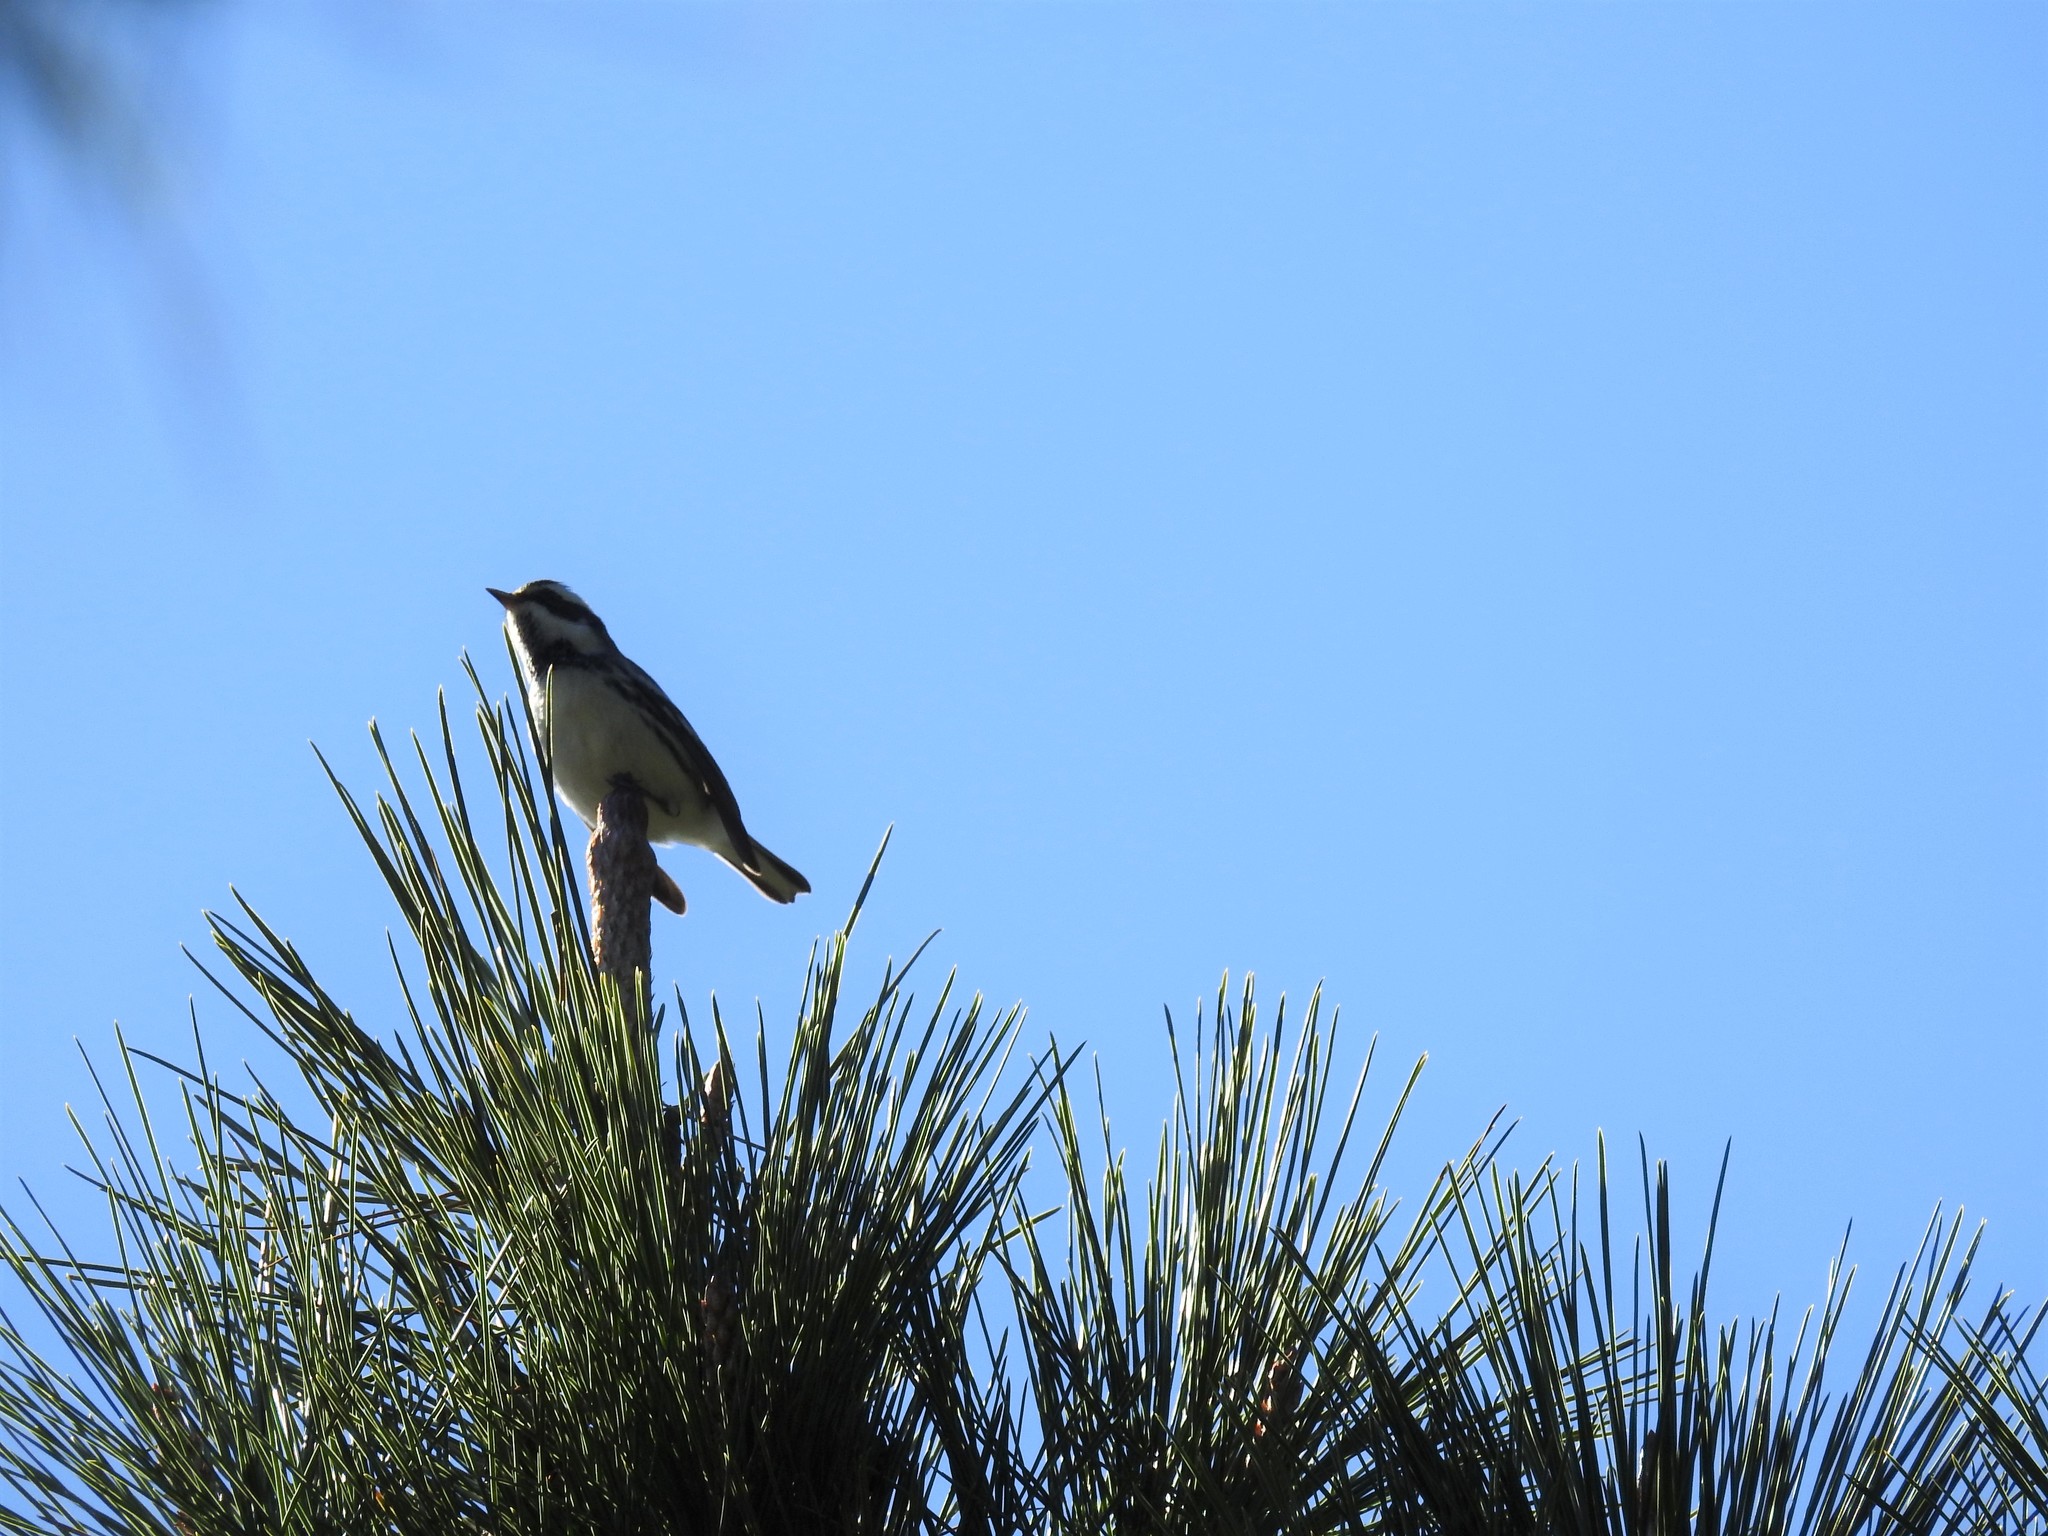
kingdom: Animalia
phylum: Chordata
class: Aves
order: Passeriformes
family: Parulidae
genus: Setophaga
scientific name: Setophaga nigrescens
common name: Black-throated gray warbler
